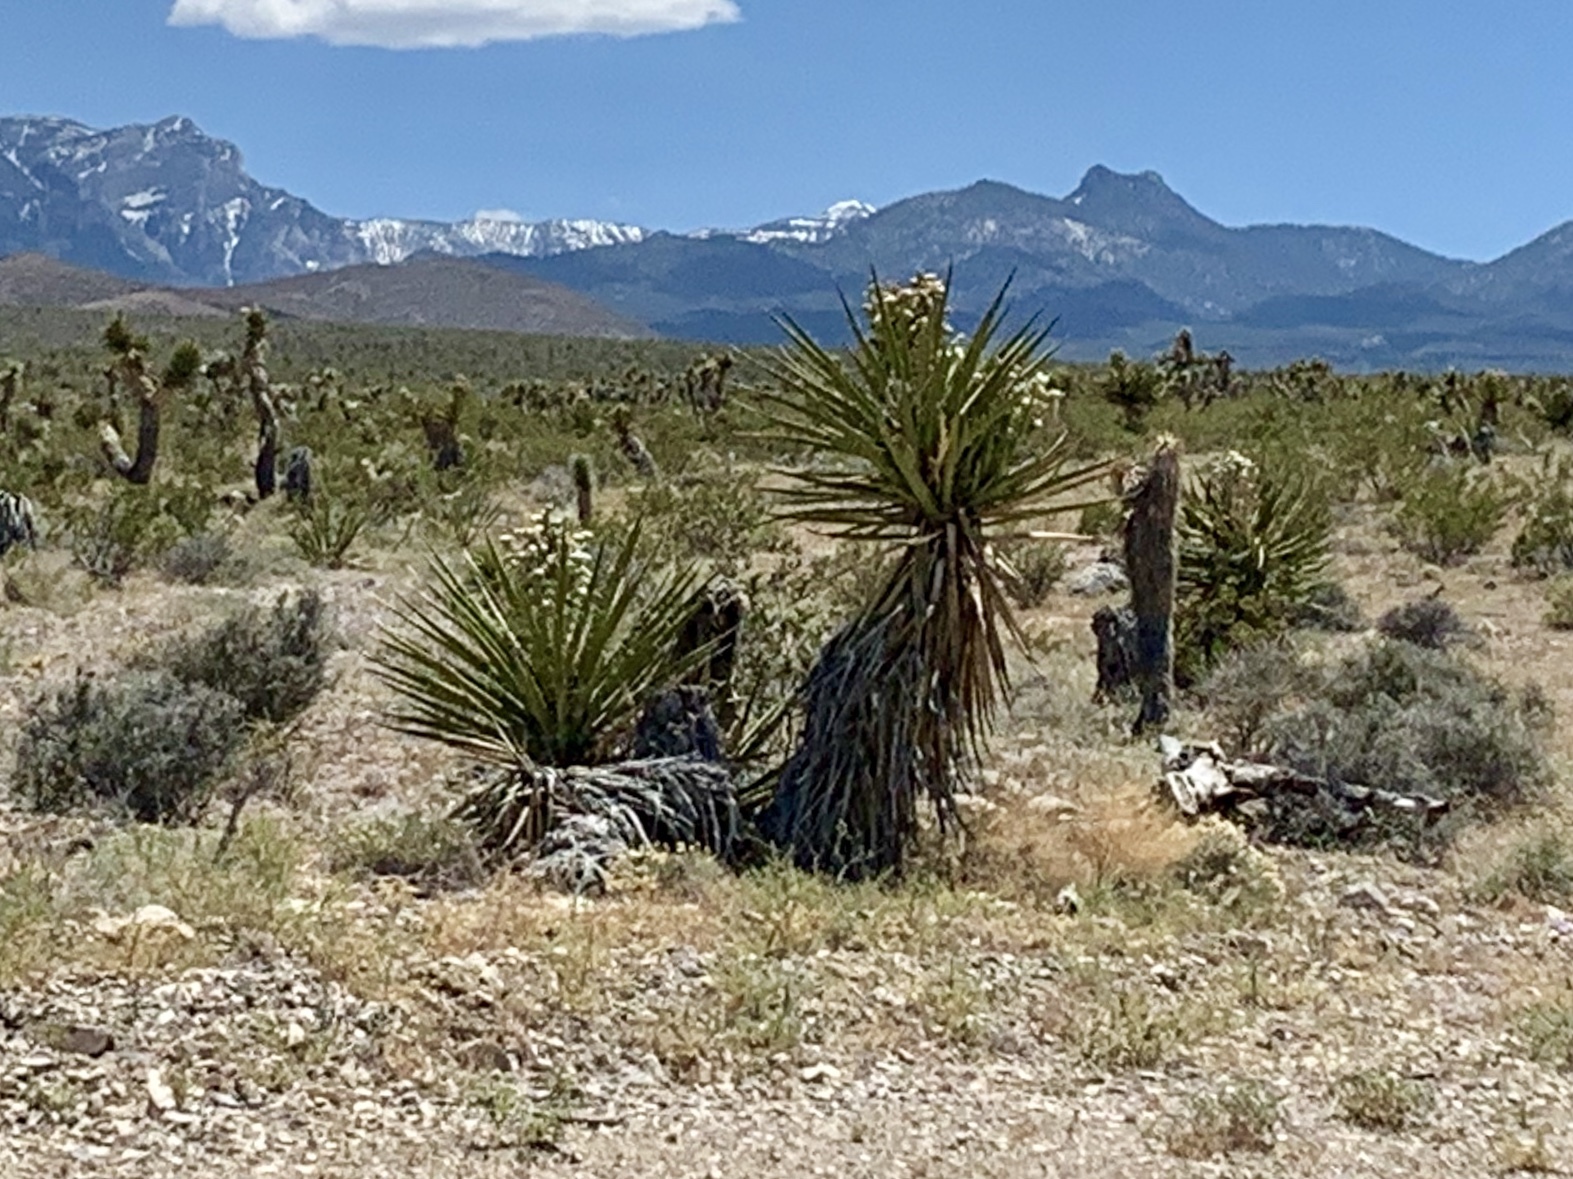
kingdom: Plantae
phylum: Tracheophyta
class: Liliopsida
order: Asparagales
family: Asparagaceae
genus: Yucca
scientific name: Yucca schidigera
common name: Mojave yucca
